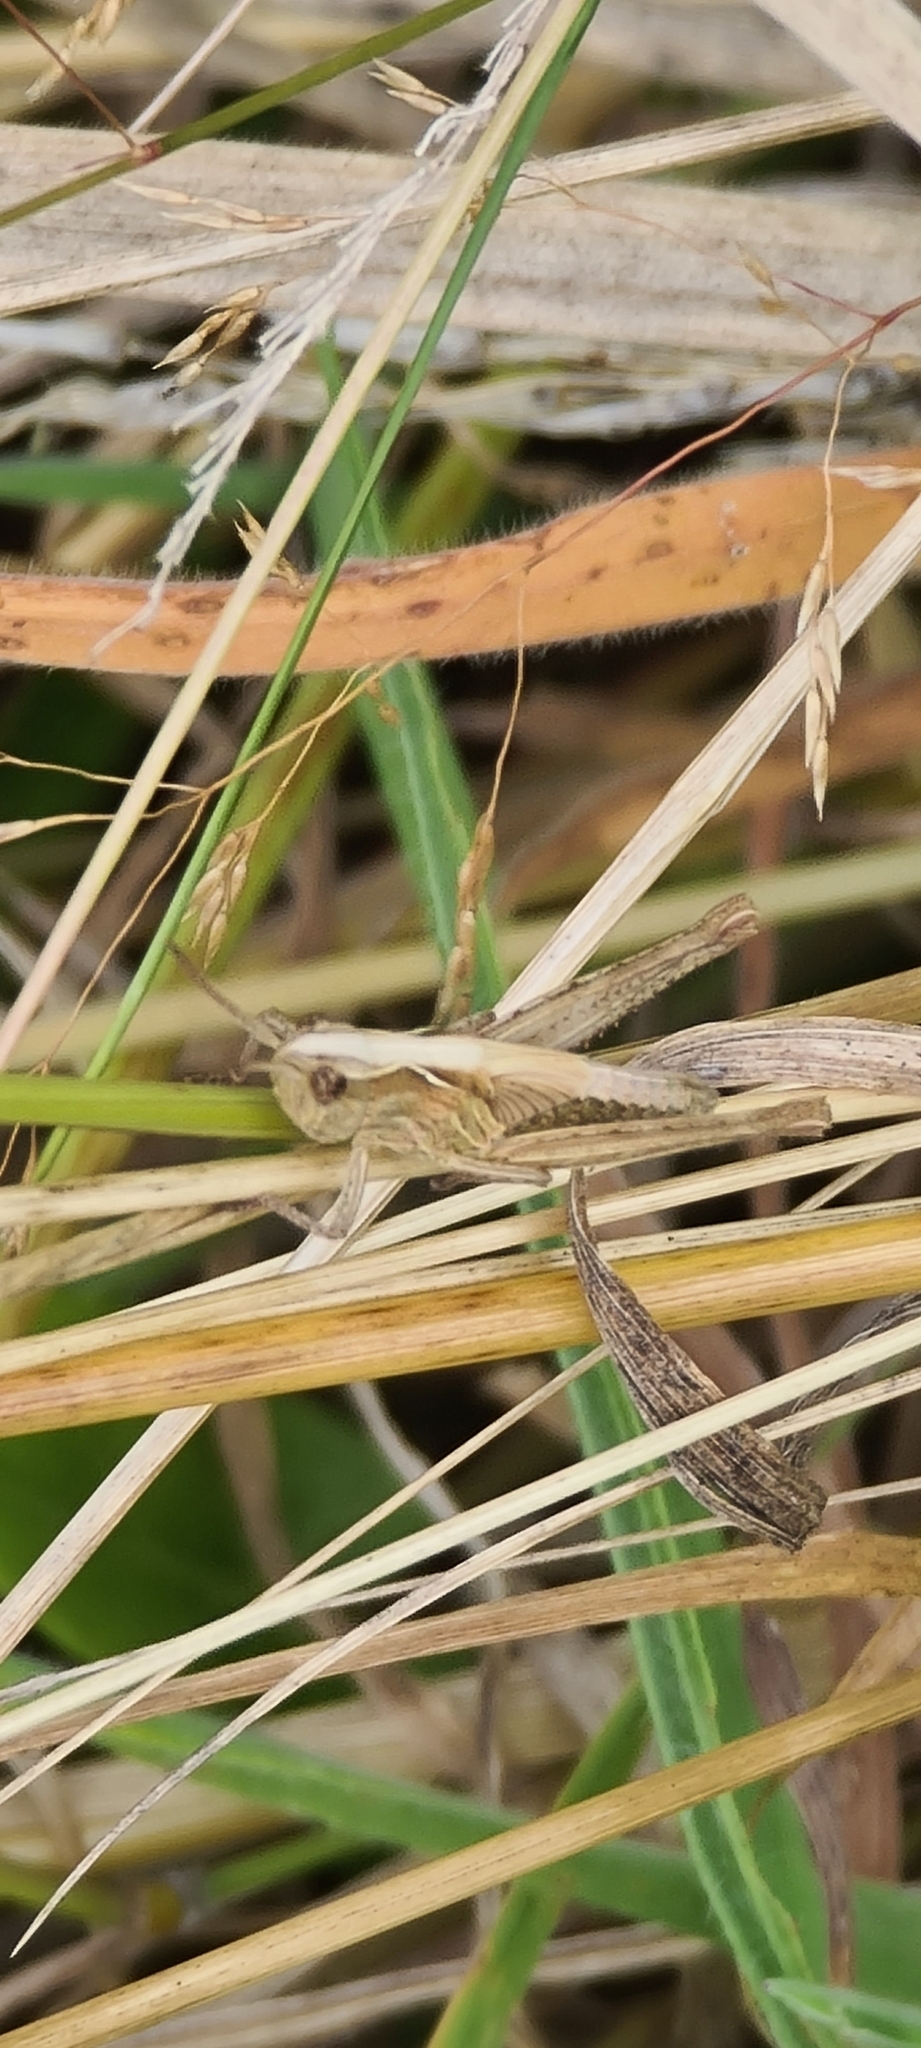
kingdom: Animalia
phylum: Arthropoda
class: Insecta
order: Orthoptera
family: Acrididae
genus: Chorthippus
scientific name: Chorthippus brunneus
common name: Field grasshopper
